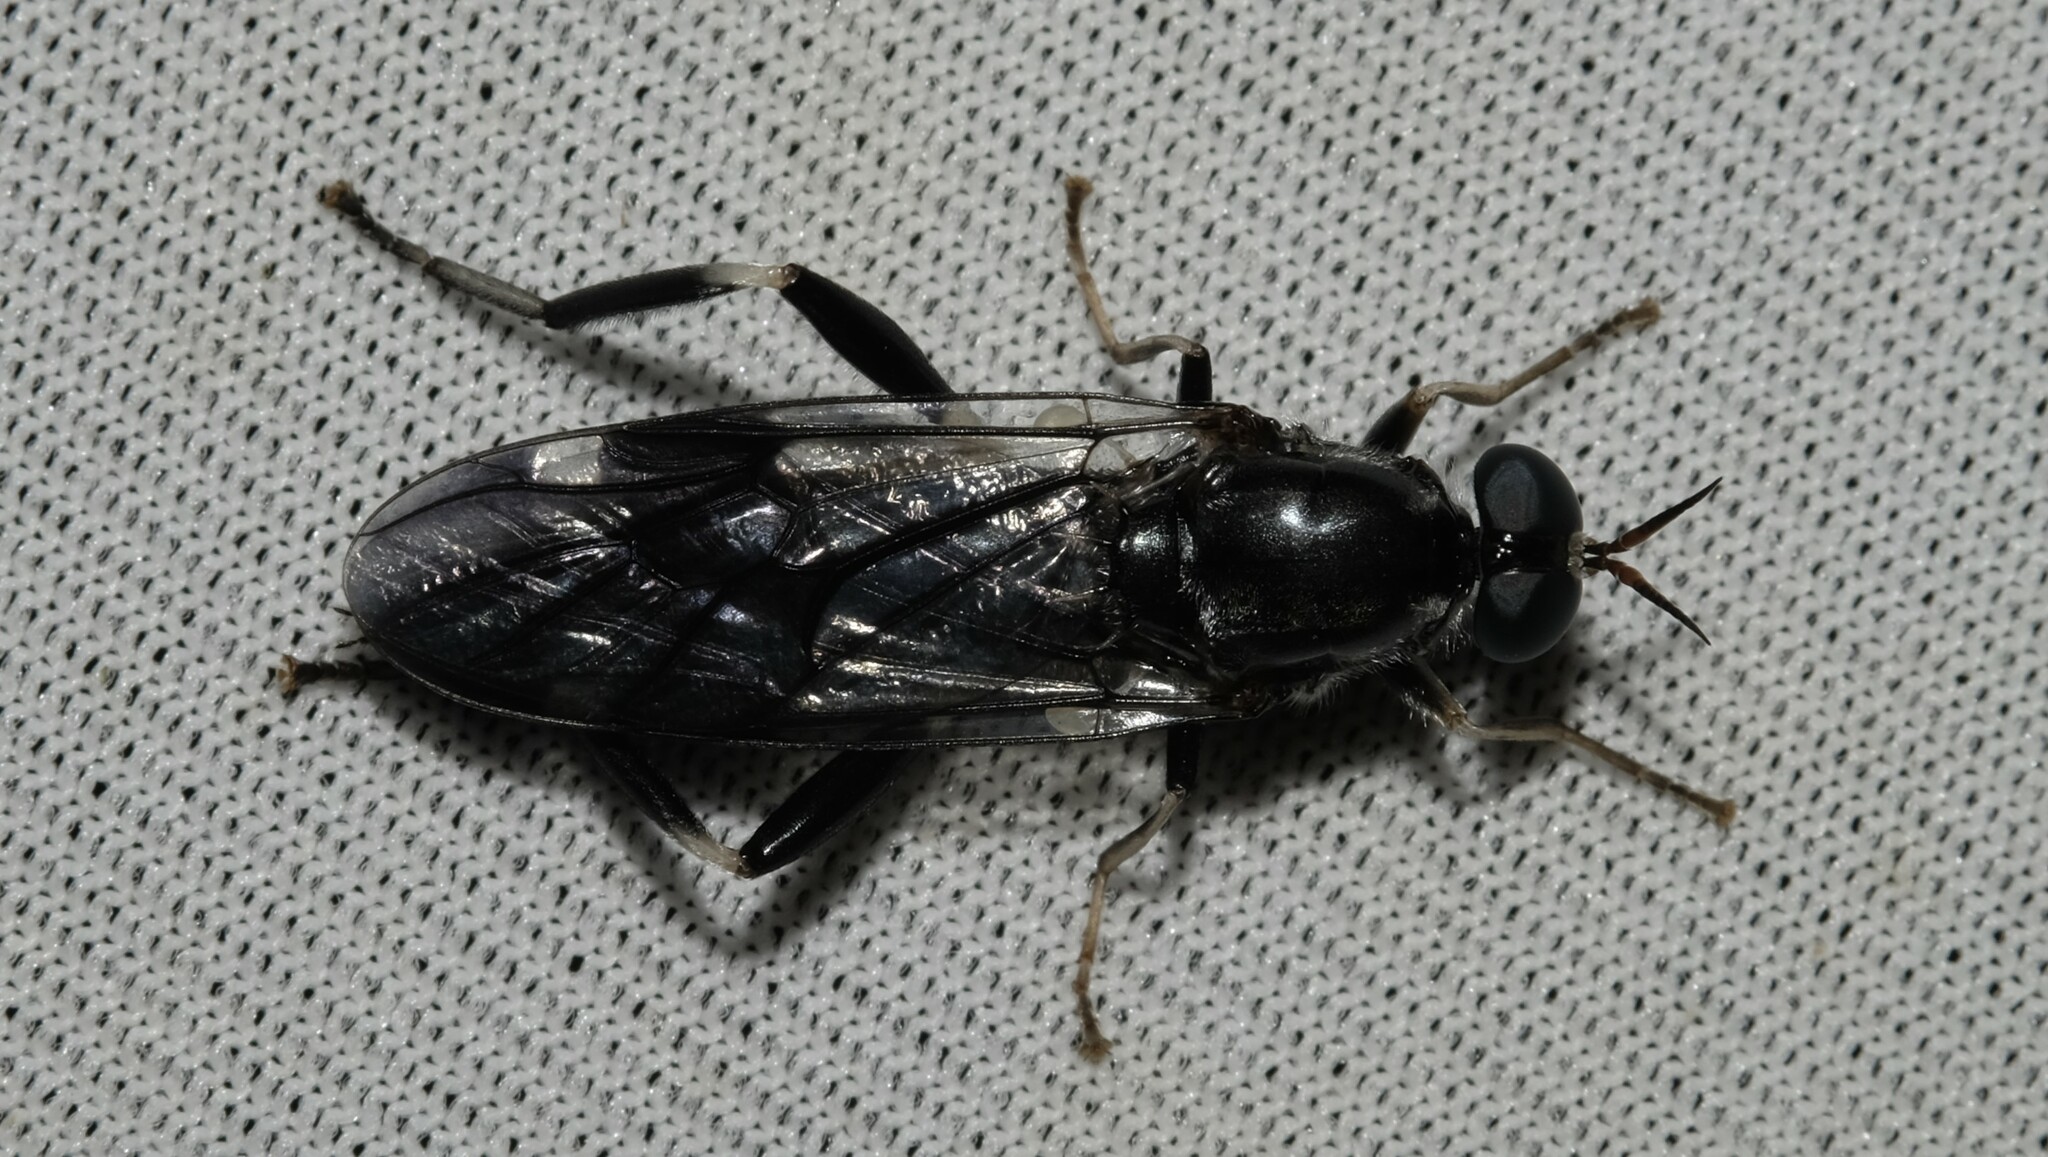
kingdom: Animalia
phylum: Arthropoda
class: Insecta
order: Diptera
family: Stratiomyidae
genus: Exaireta
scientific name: Exaireta spinigera
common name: Blue soldier fly
